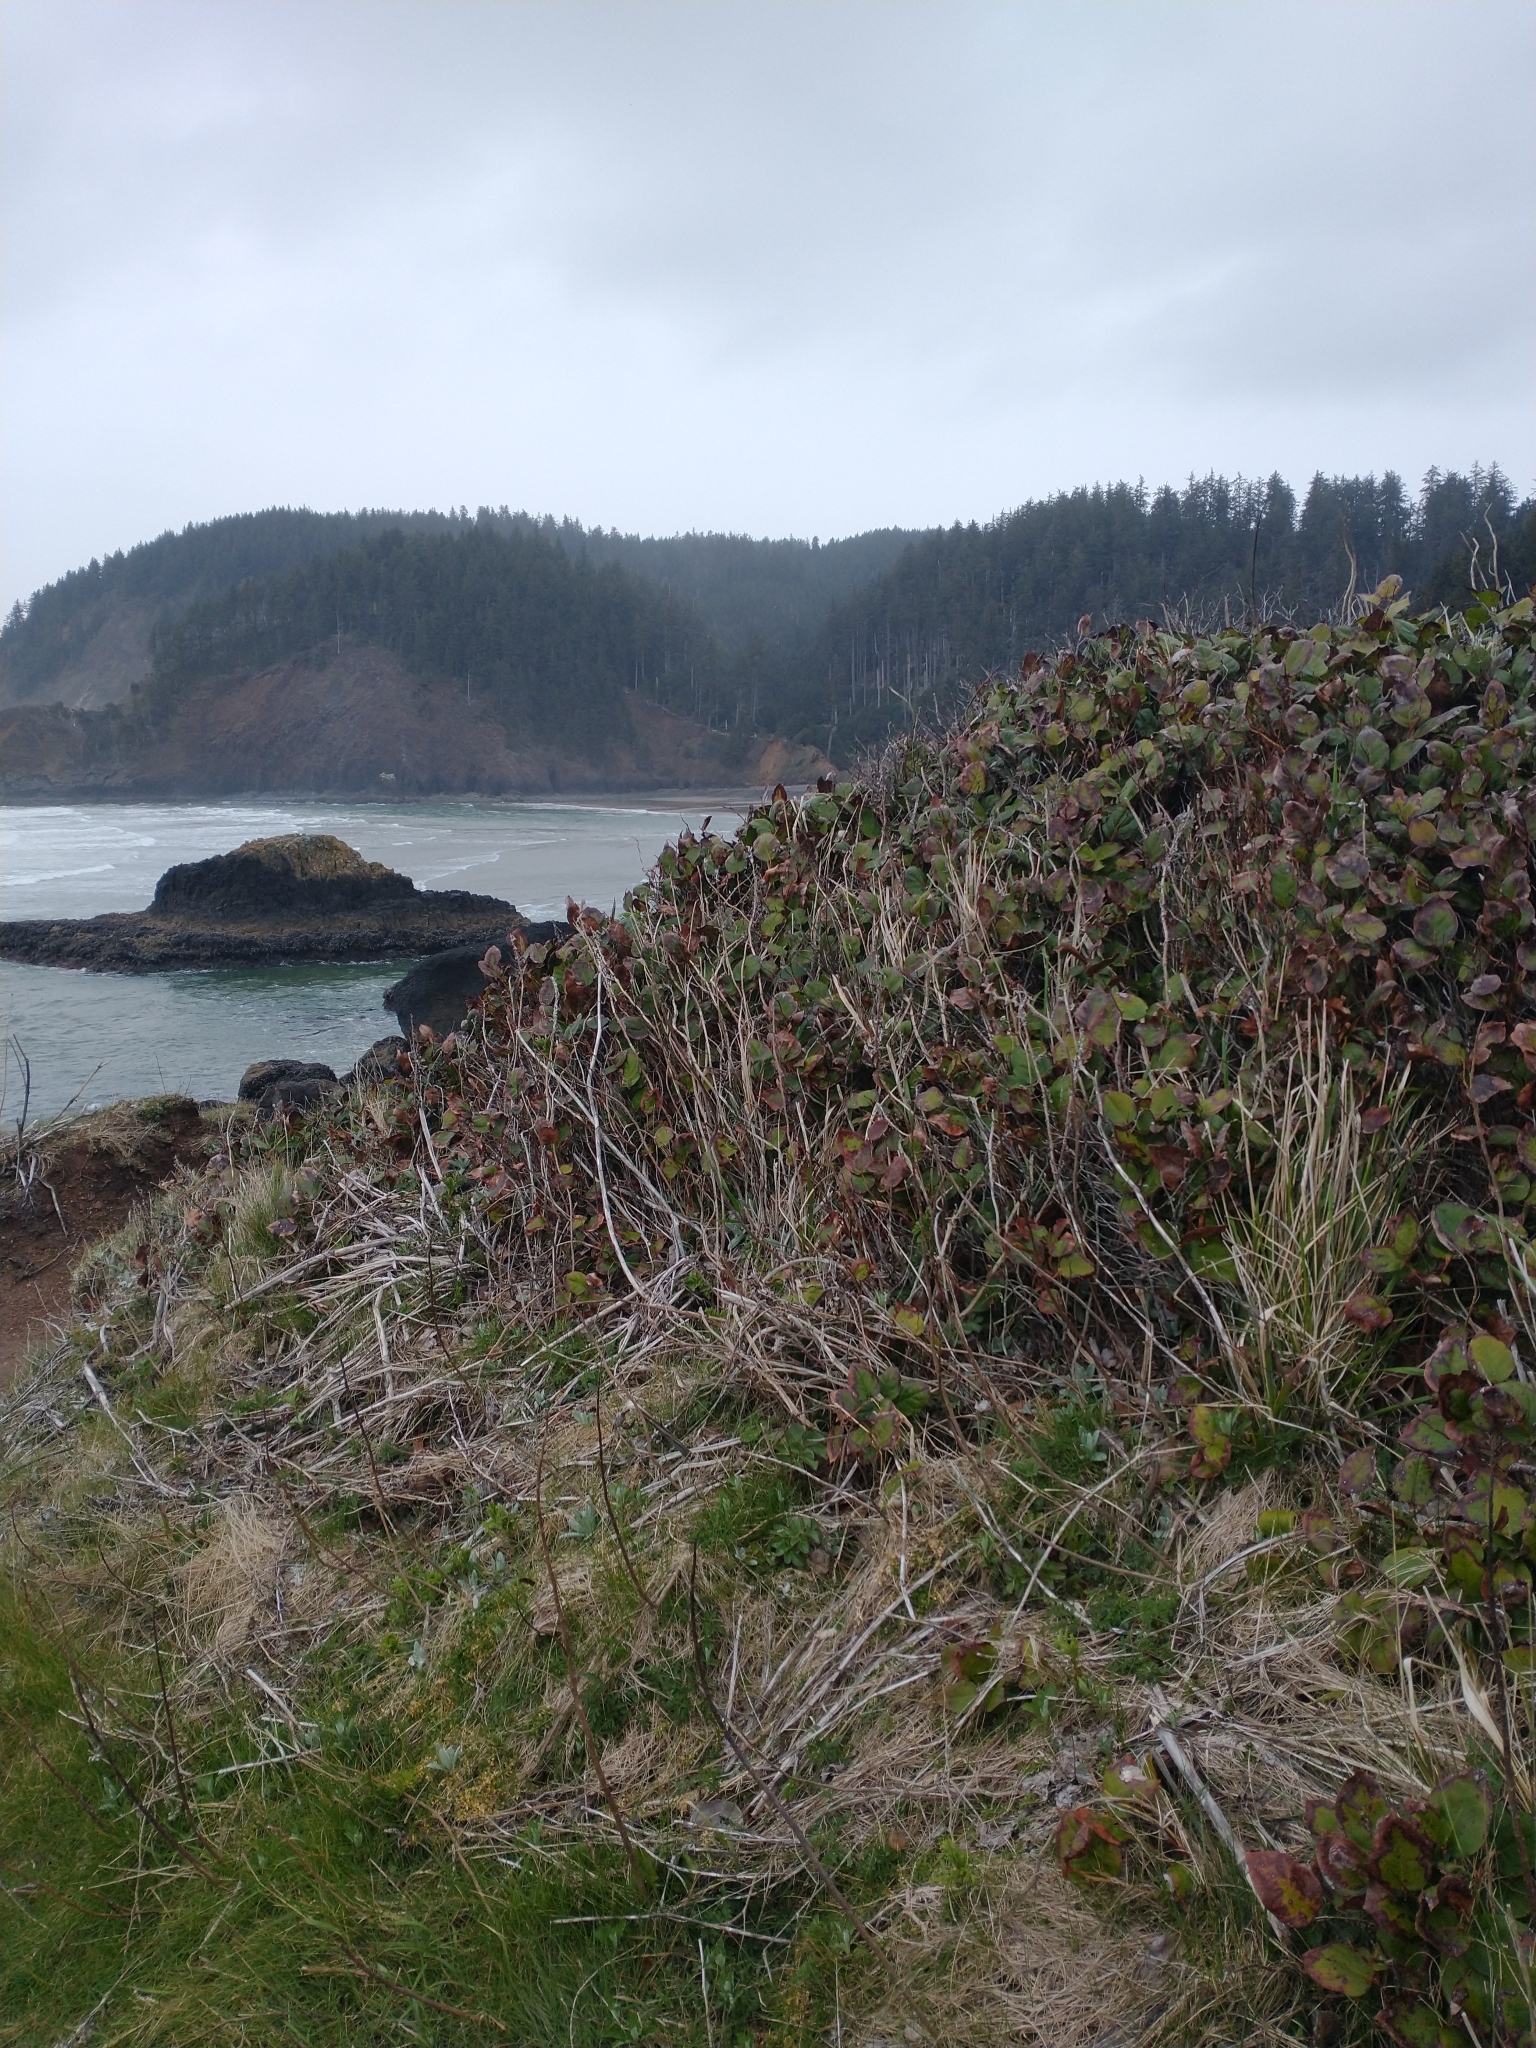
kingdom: Plantae
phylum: Tracheophyta
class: Magnoliopsida
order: Ericales
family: Ericaceae
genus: Gaultheria
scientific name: Gaultheria shallon
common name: Shallon
